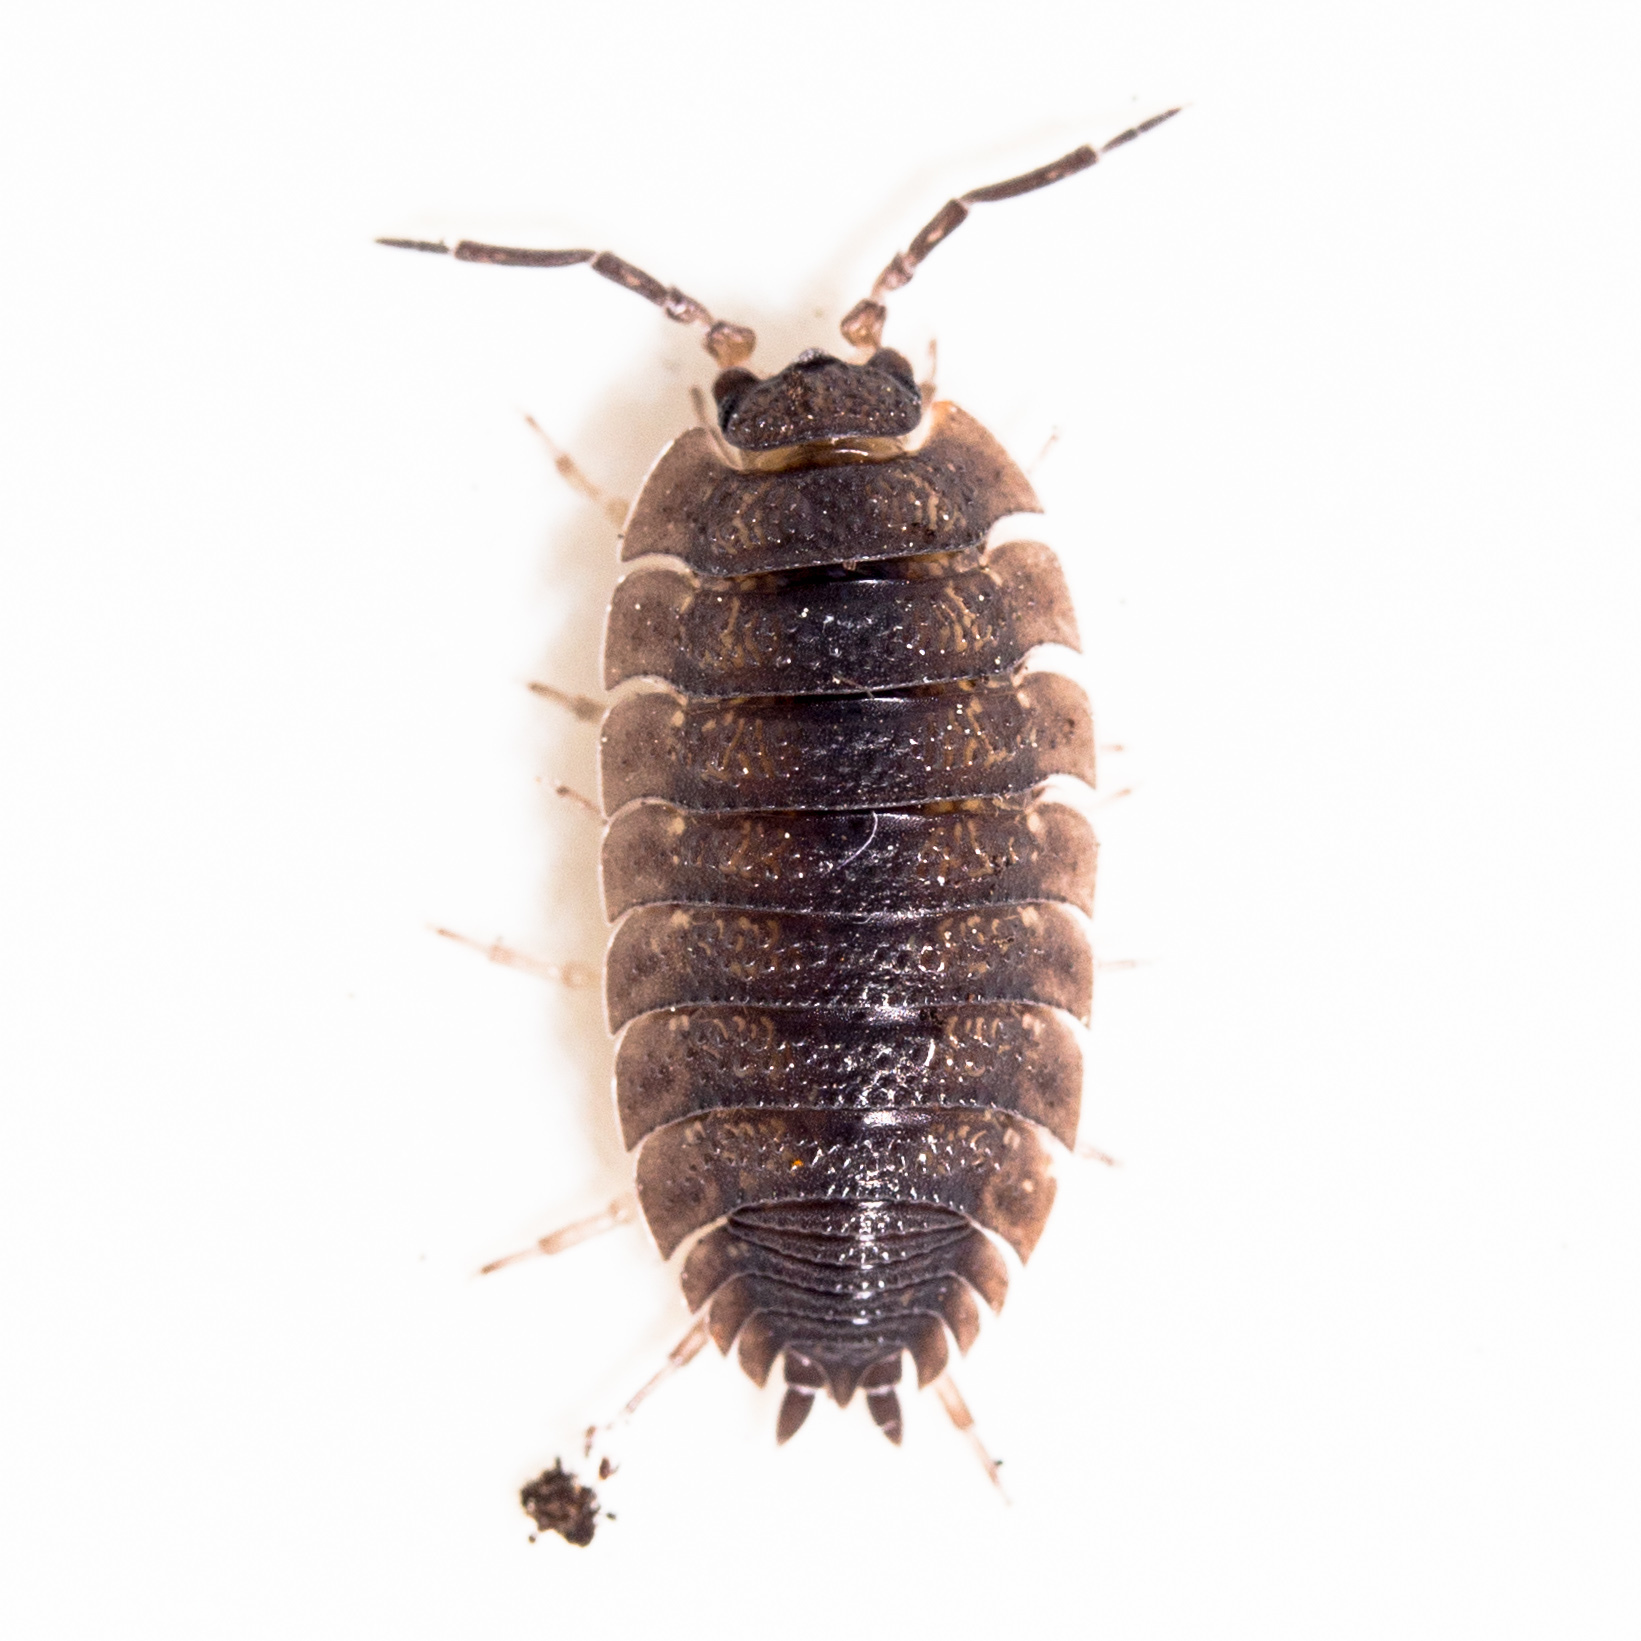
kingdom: Animalia
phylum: Arthropoda
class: Malacostraca
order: Isopoda
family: Porcellionidae
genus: Porcellio
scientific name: Porcellio scaber
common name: Common rough woodlouse
